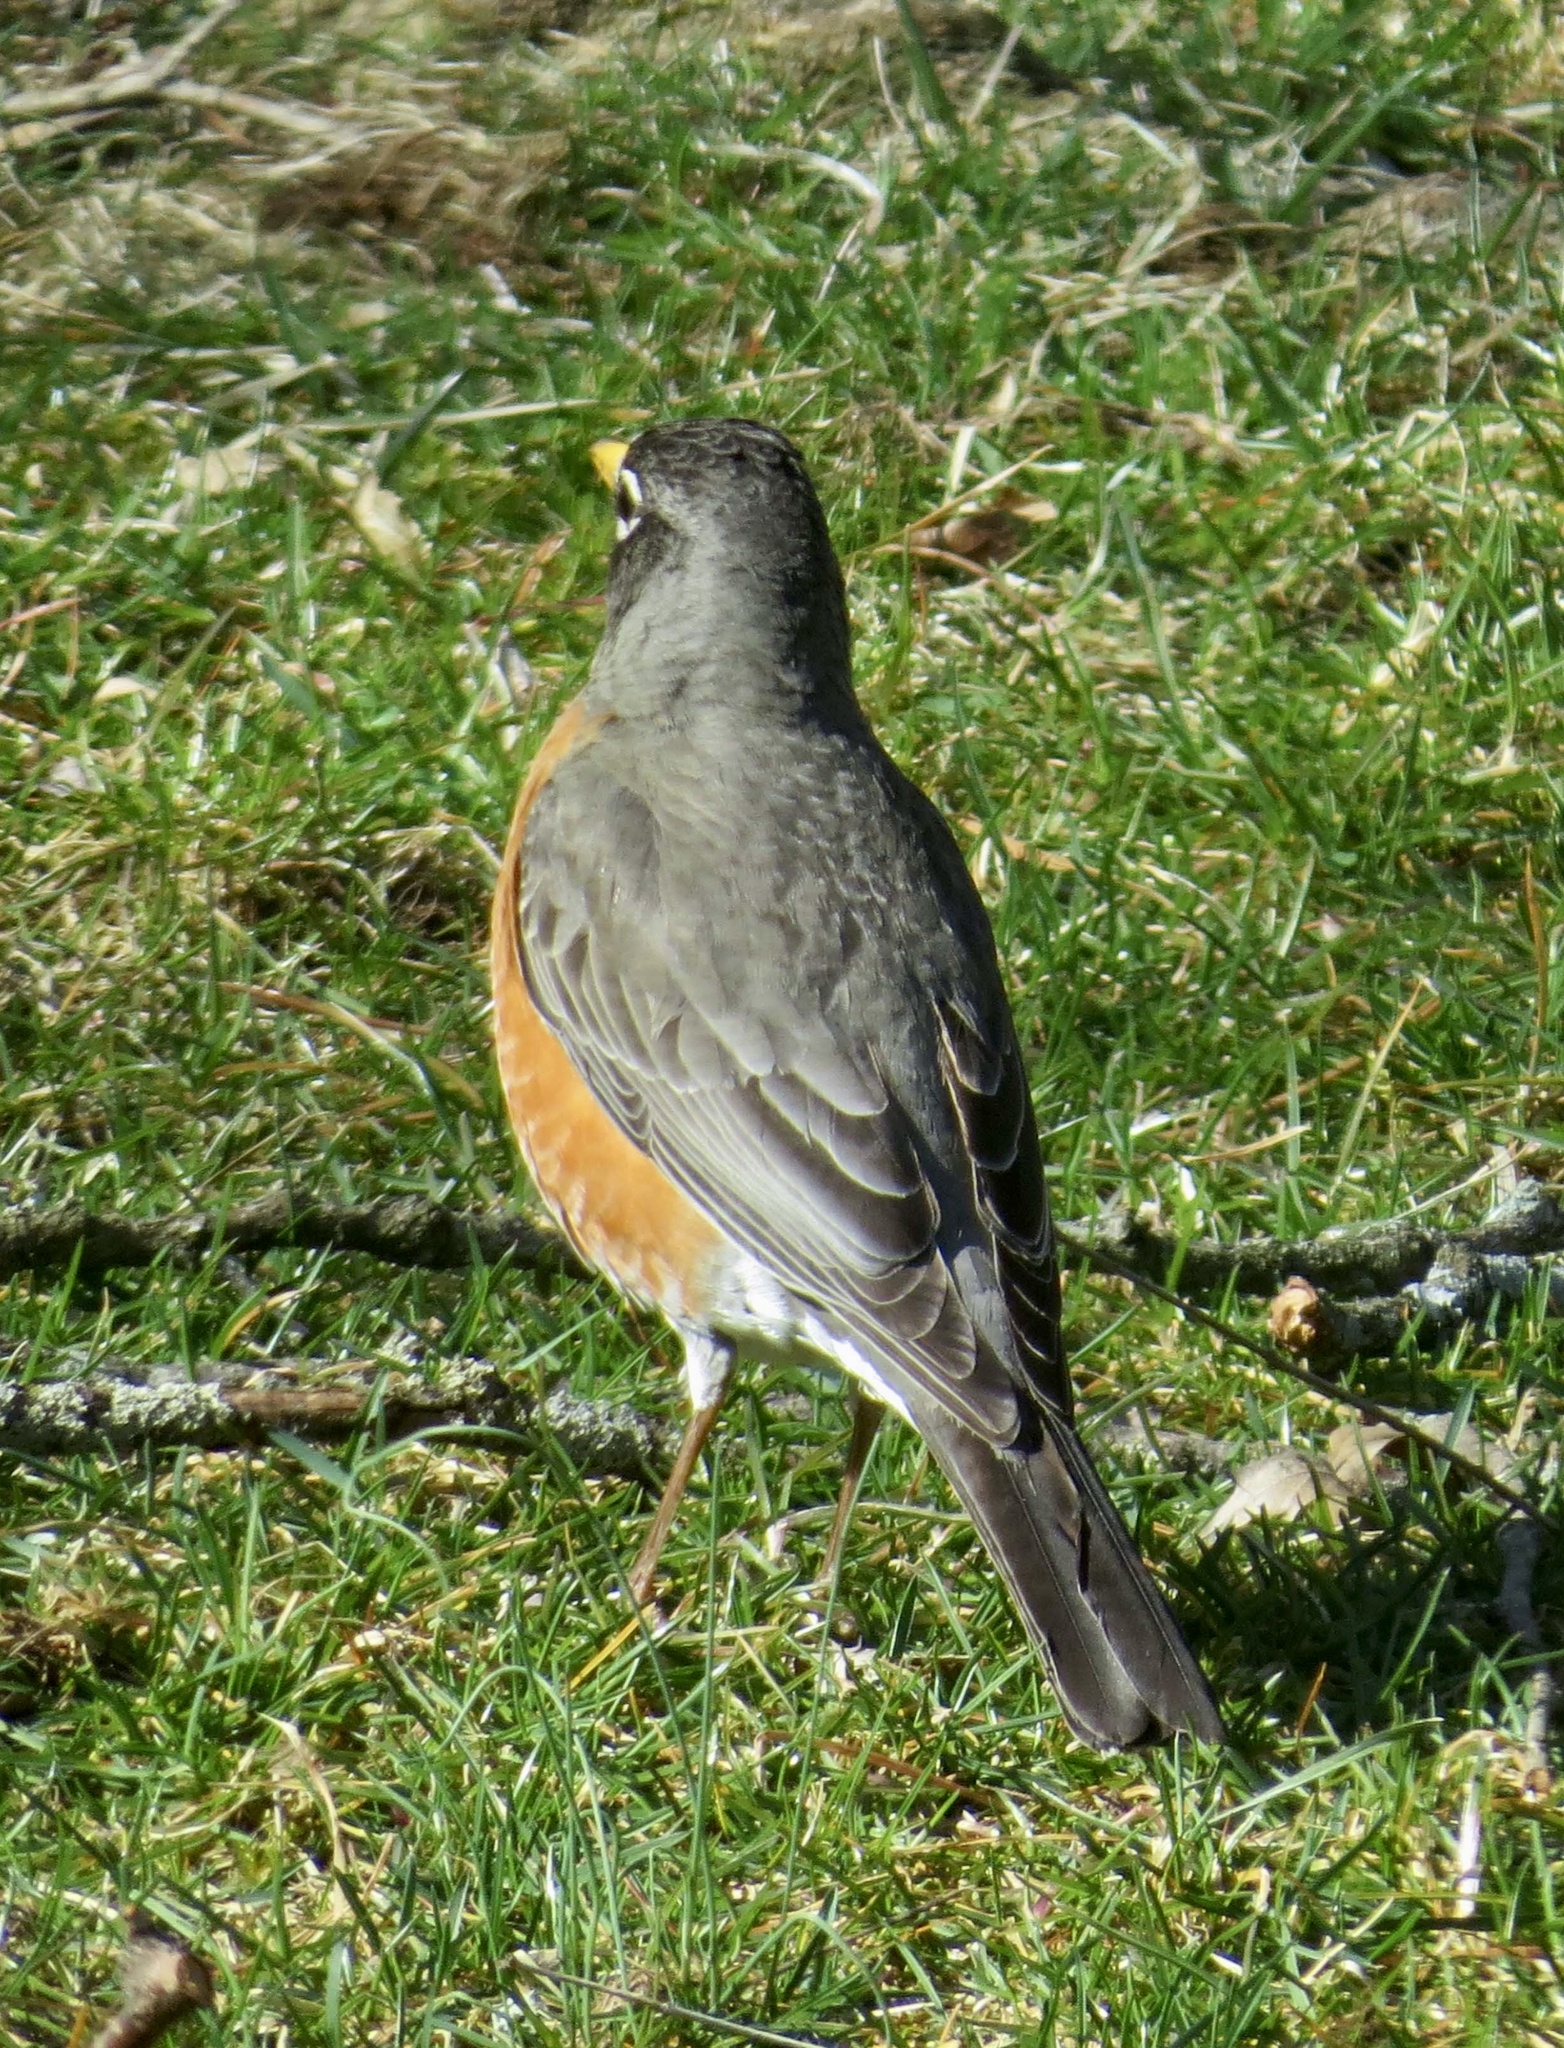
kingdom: Animalia
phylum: Chordata
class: Aves
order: Passeriformes
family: Turdidae
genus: Turdus
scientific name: Turdus migratorius
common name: American robin
